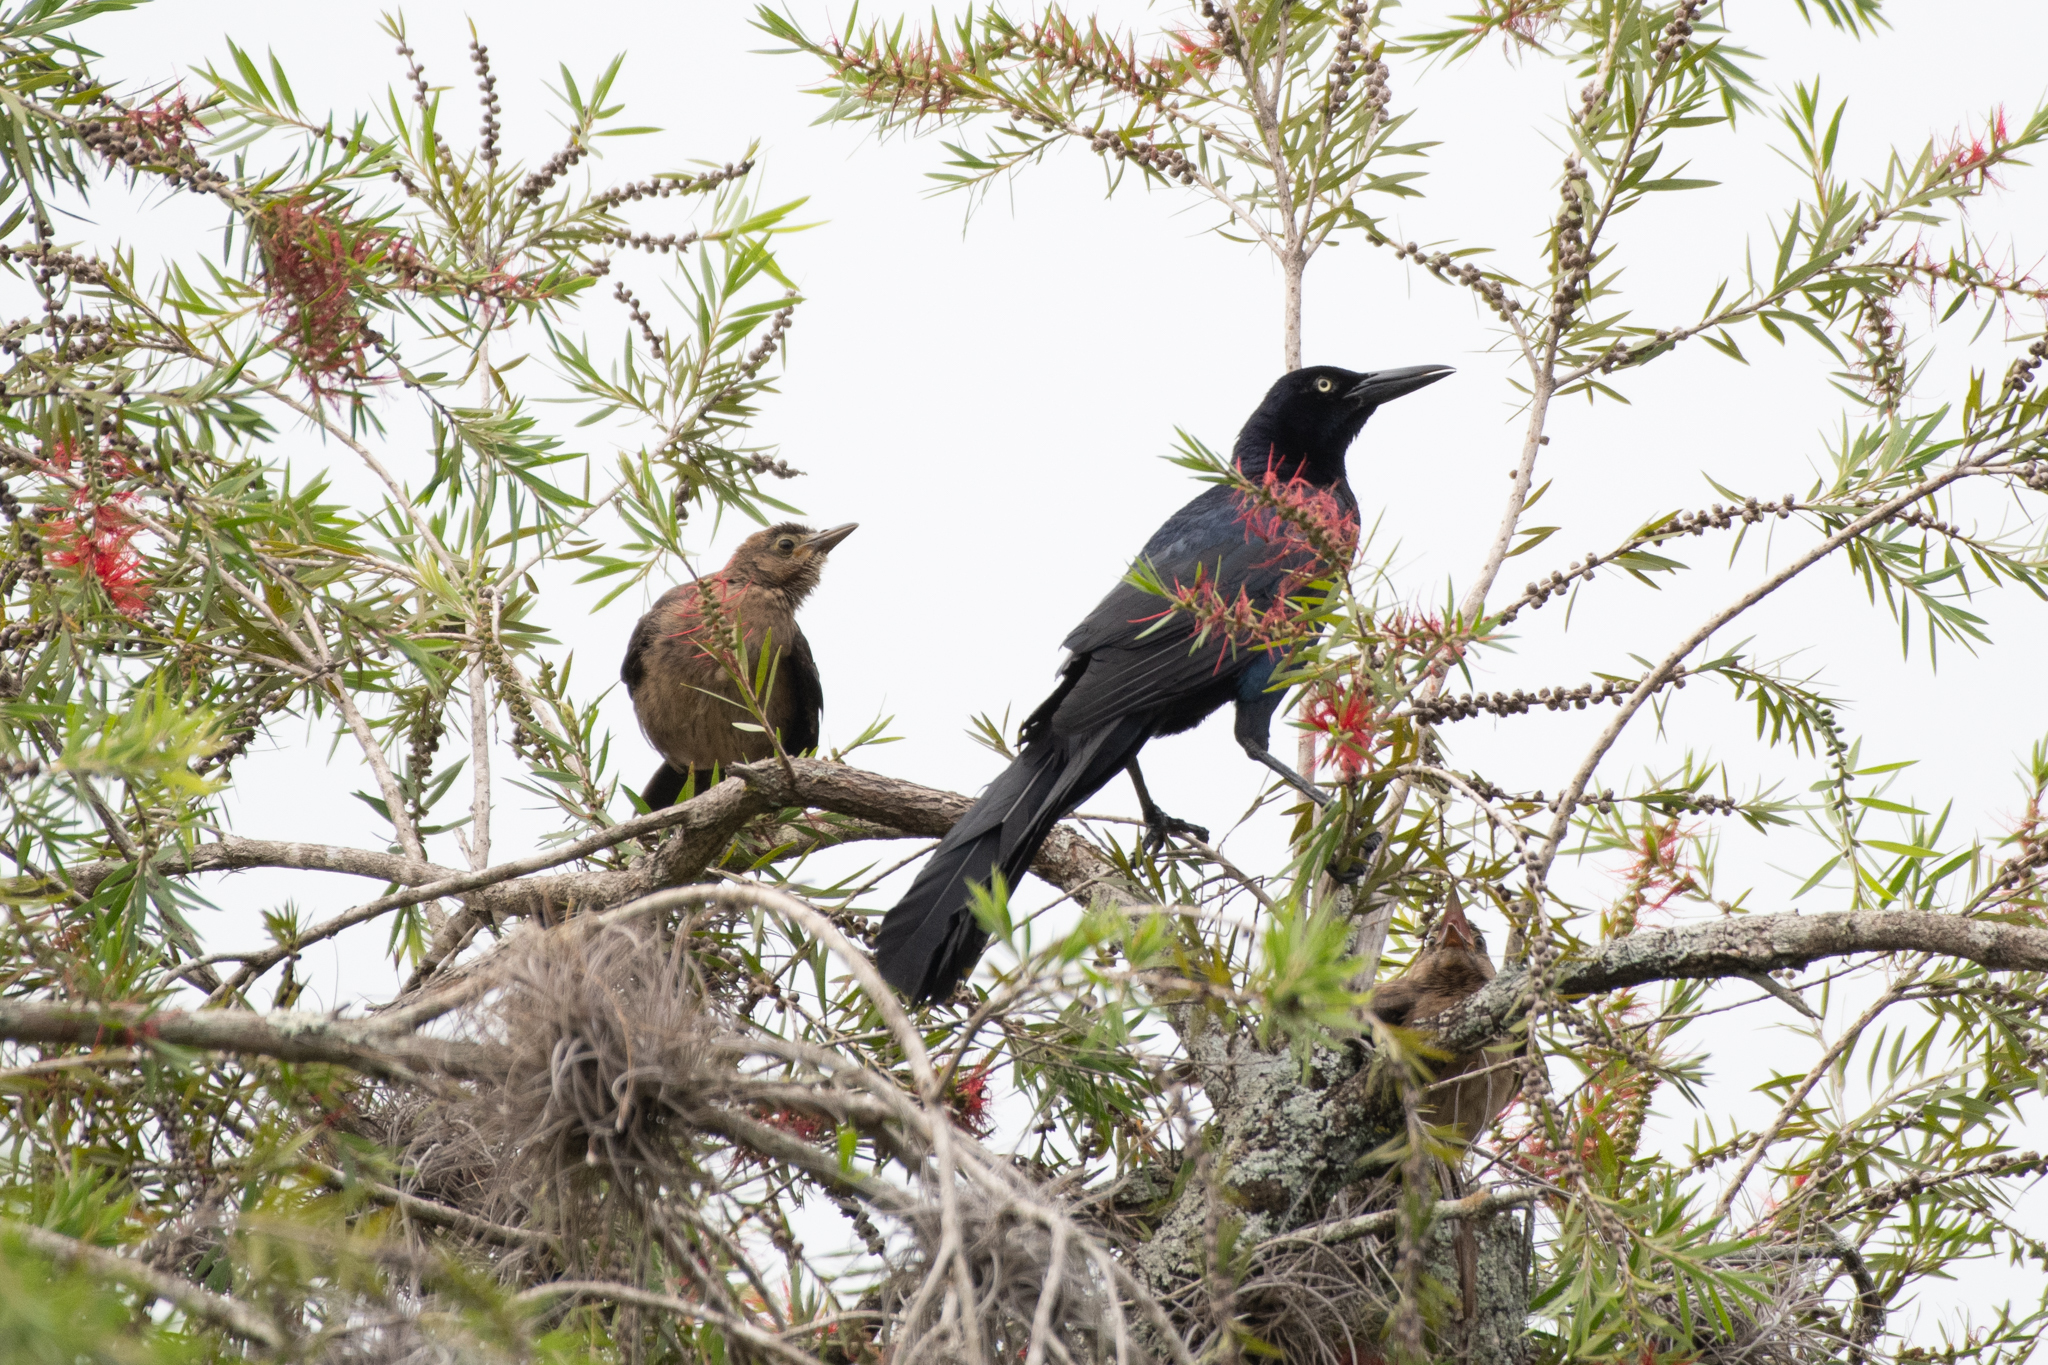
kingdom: Animalia
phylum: Chordata
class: Aves
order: Passeriformes
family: Icteridae
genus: Quiscalus
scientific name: Quiscalus mexicanus
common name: Great-tailed grackle
